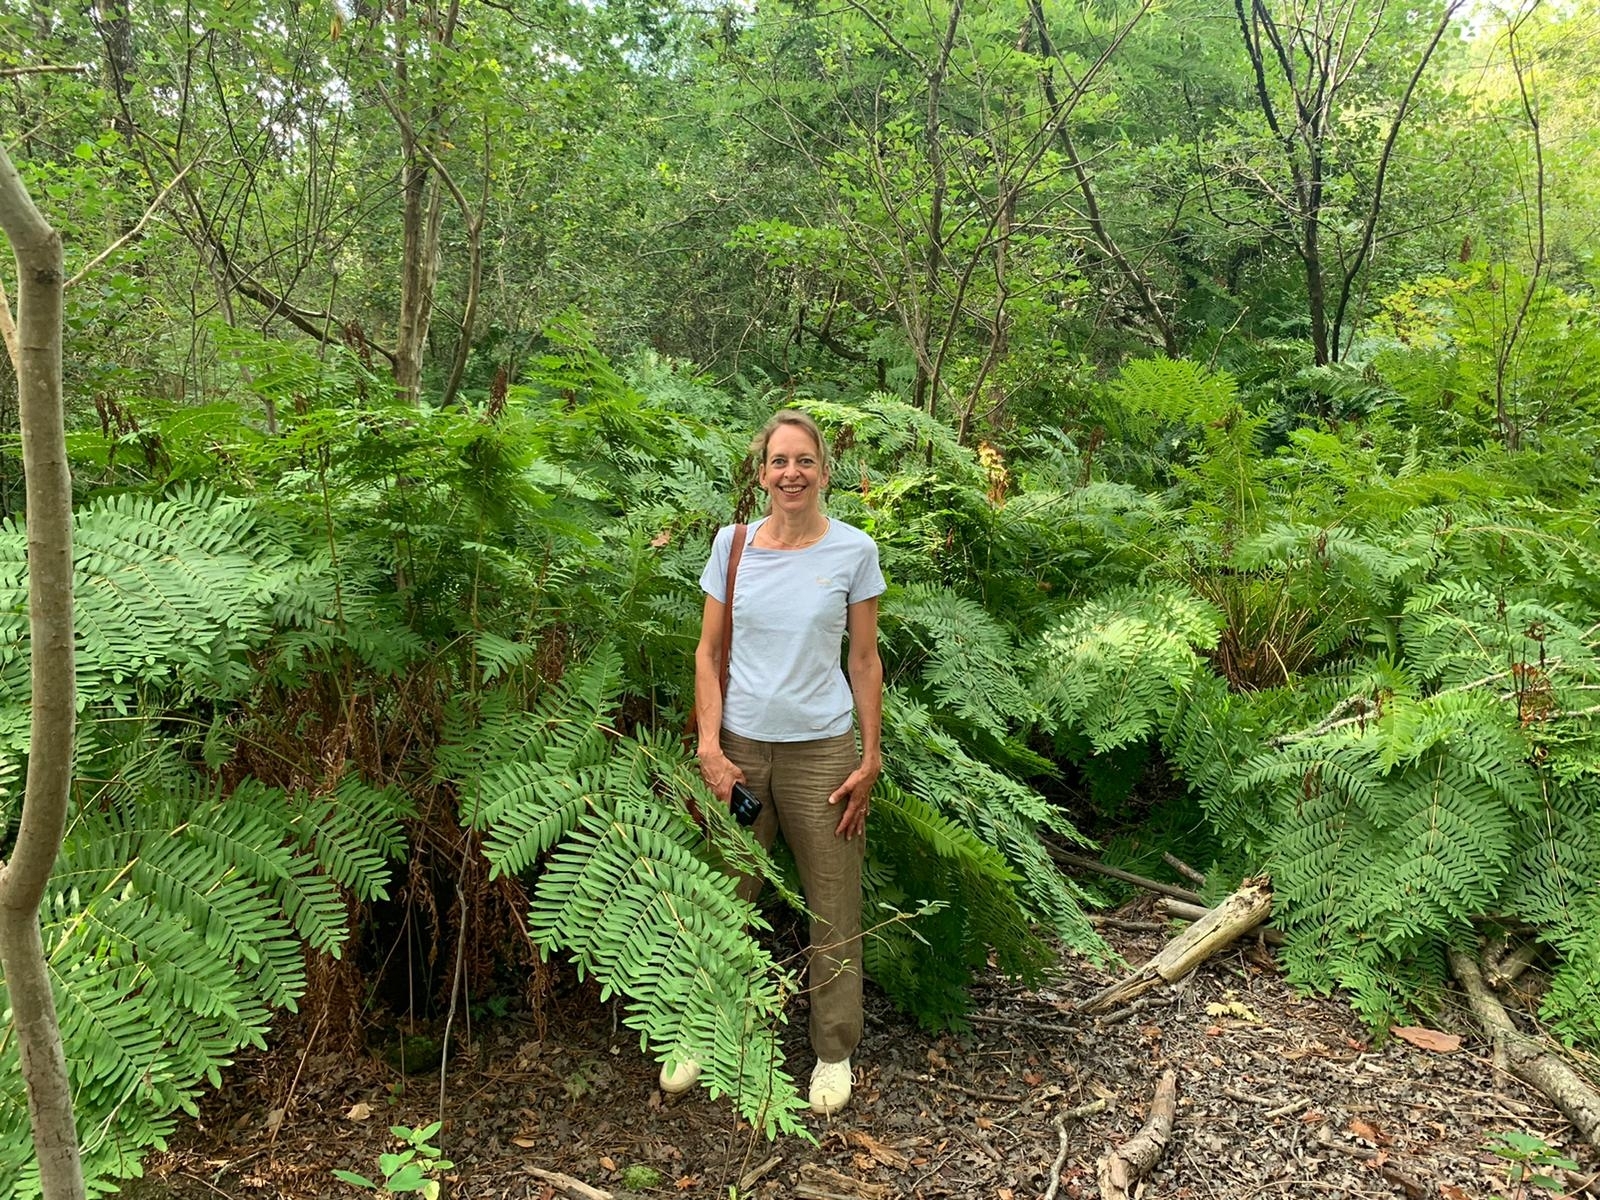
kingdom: Plantae
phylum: Tracheophyta
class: Polypodiopsida
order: Osmundales
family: Osmundaceae
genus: Osmunda
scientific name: Osmunda regalis
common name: Royal fern
